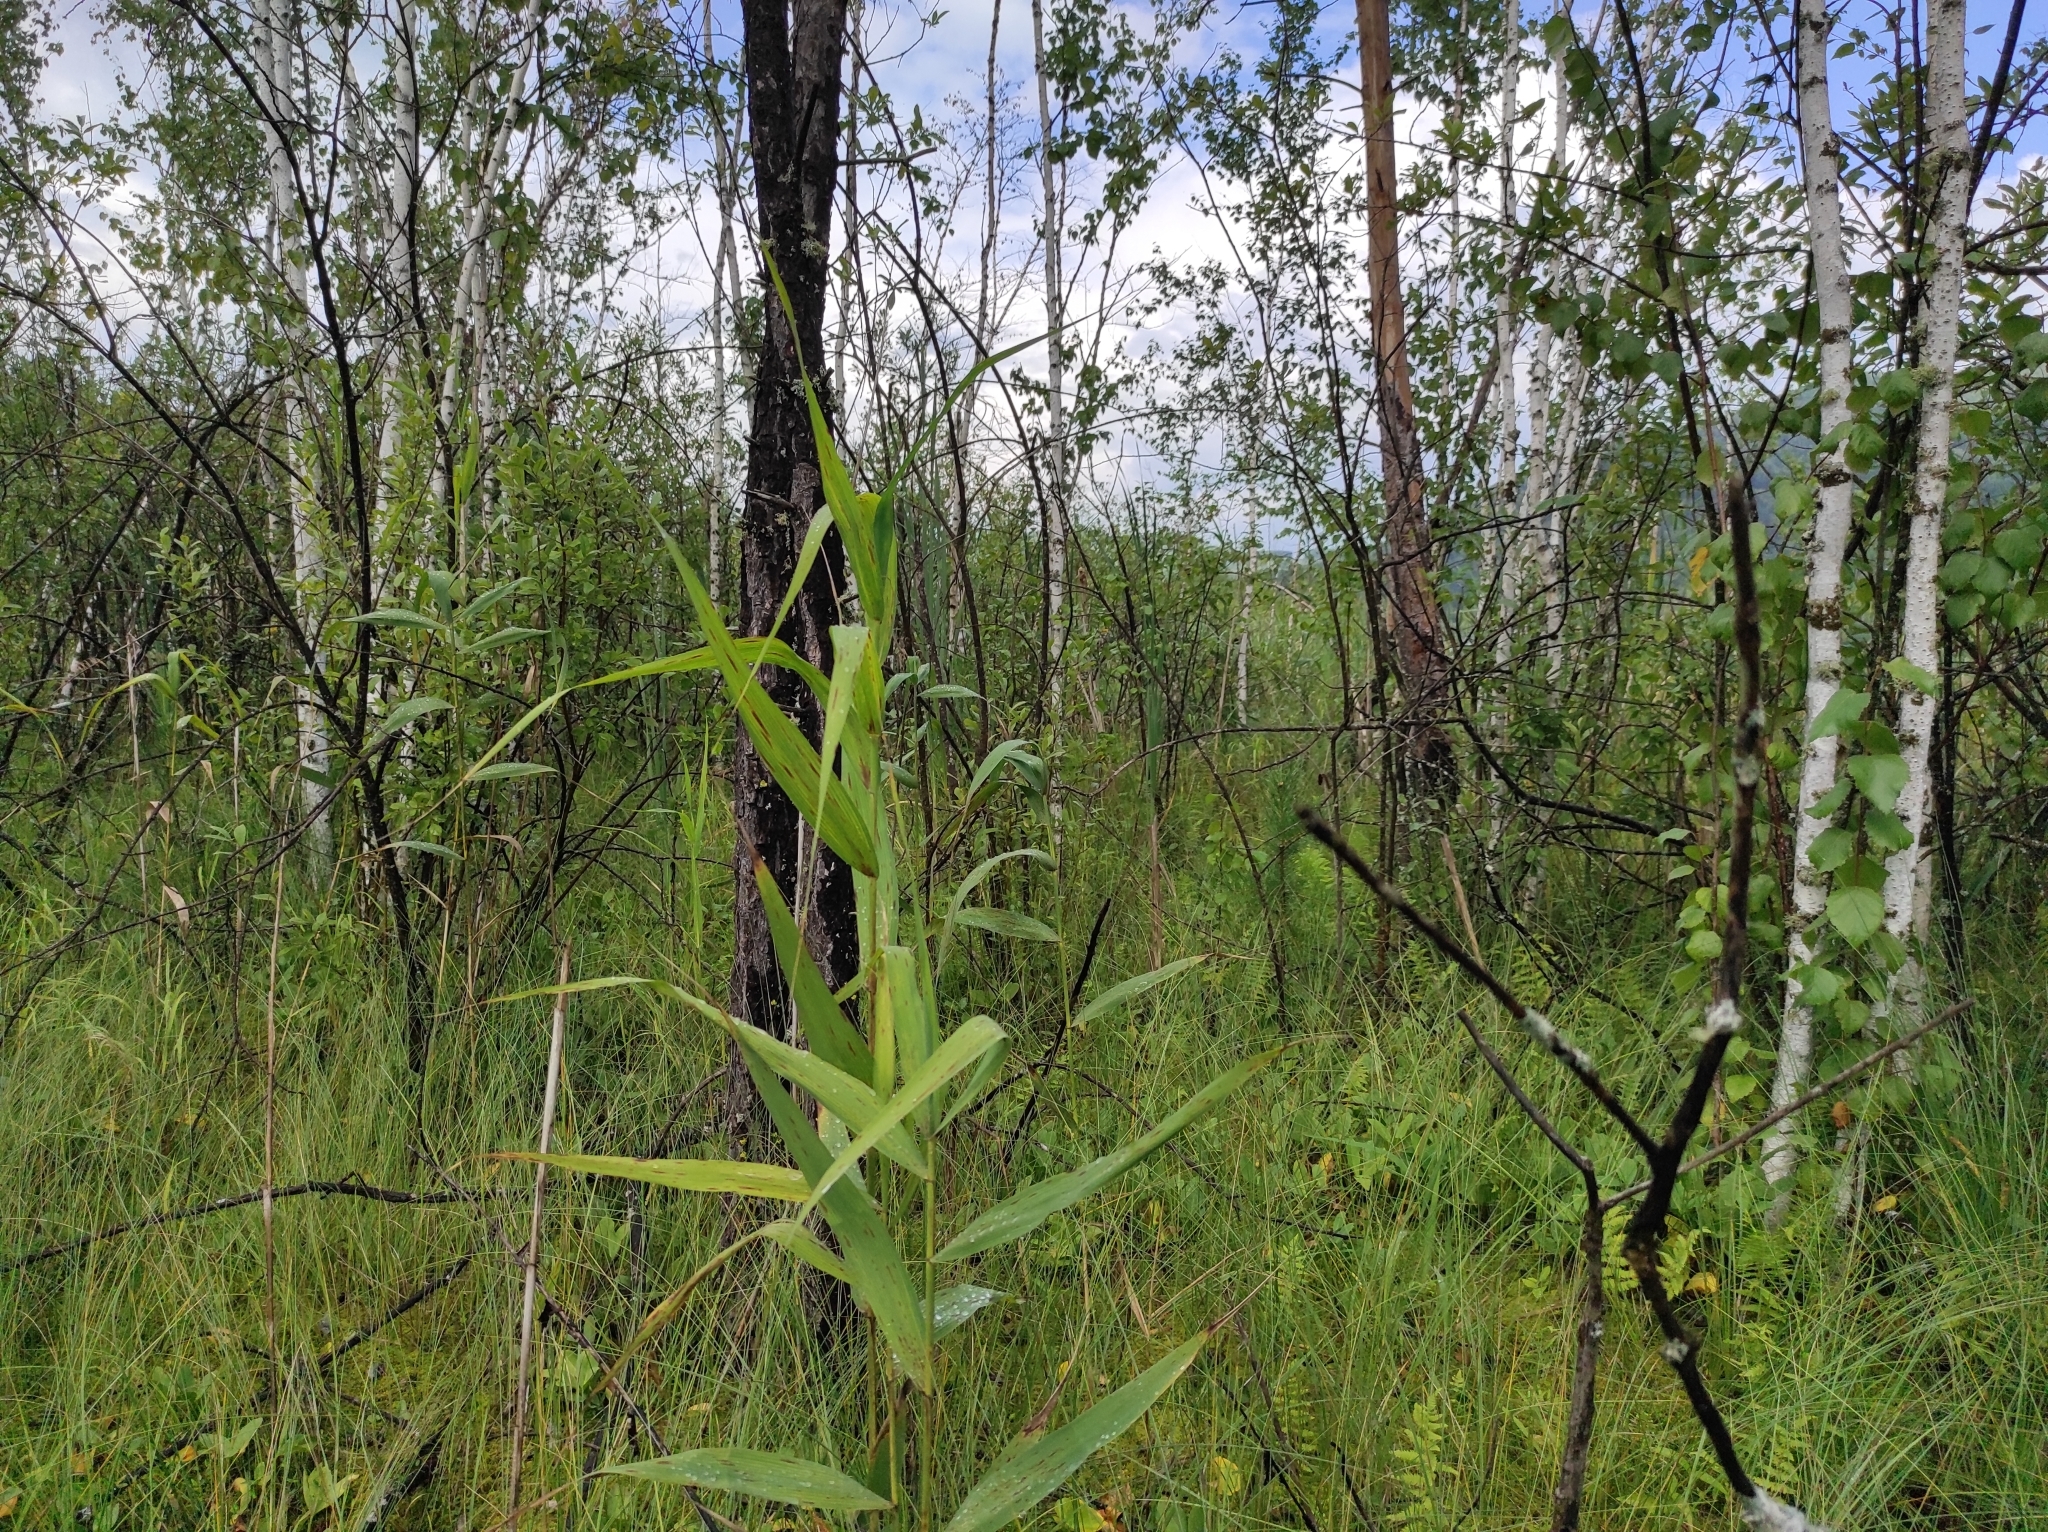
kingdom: Plantae
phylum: Tracheophyta
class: Liliopsida
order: Poales
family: Poaceae
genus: Phragmites
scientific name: Phragmites australis
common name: Common reed
